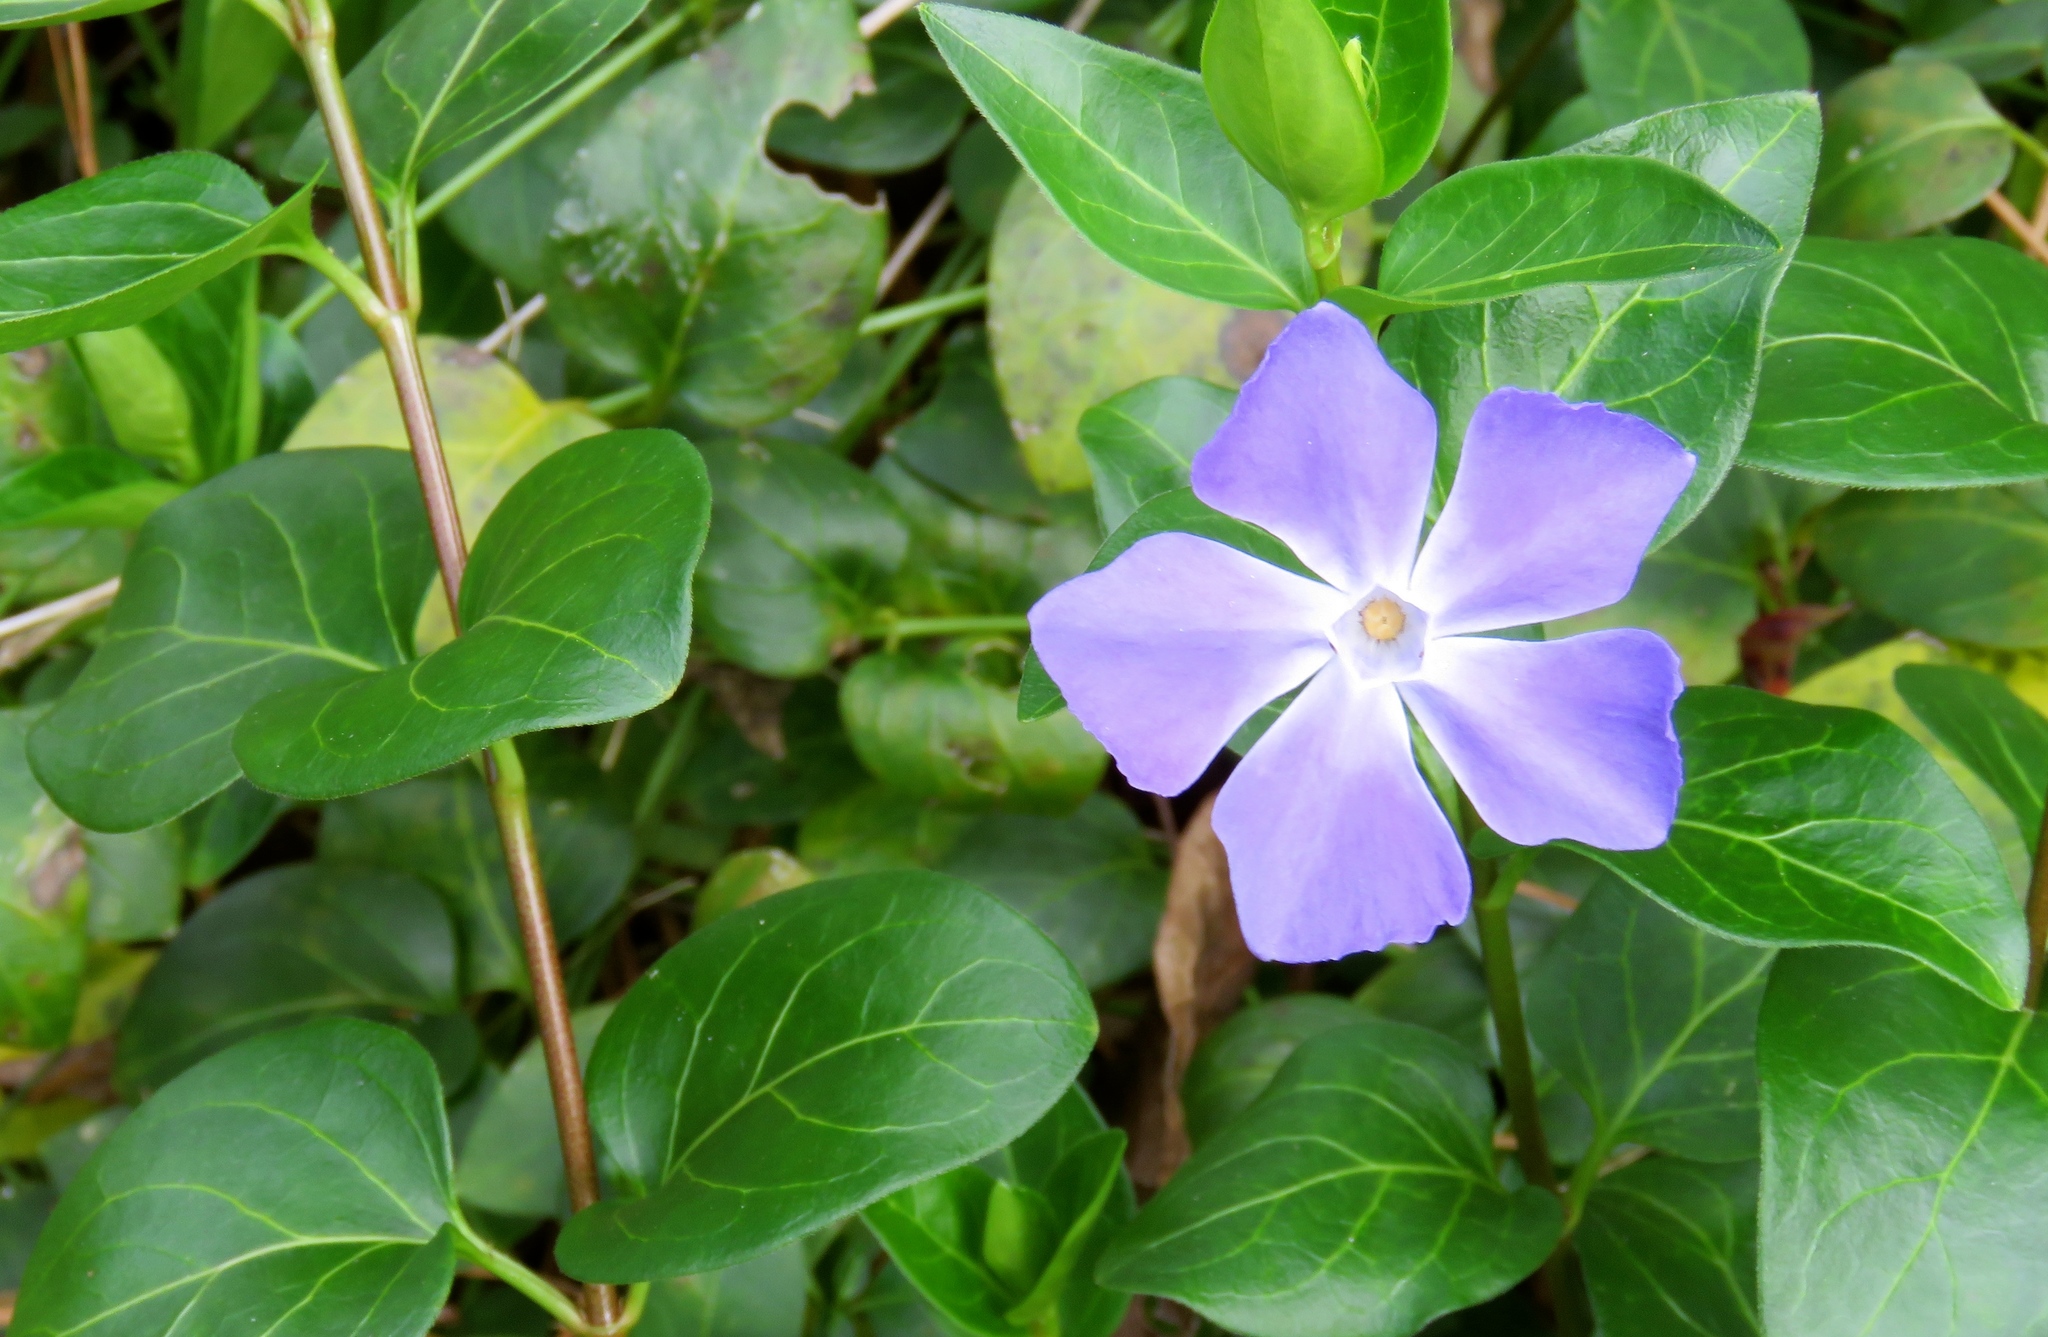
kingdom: Plantae
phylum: Tracheophyta
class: Magnoliopsida
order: Gentianales
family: Apocynaceae
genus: Vinca
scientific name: Vinca major
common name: Greater periwinkle
